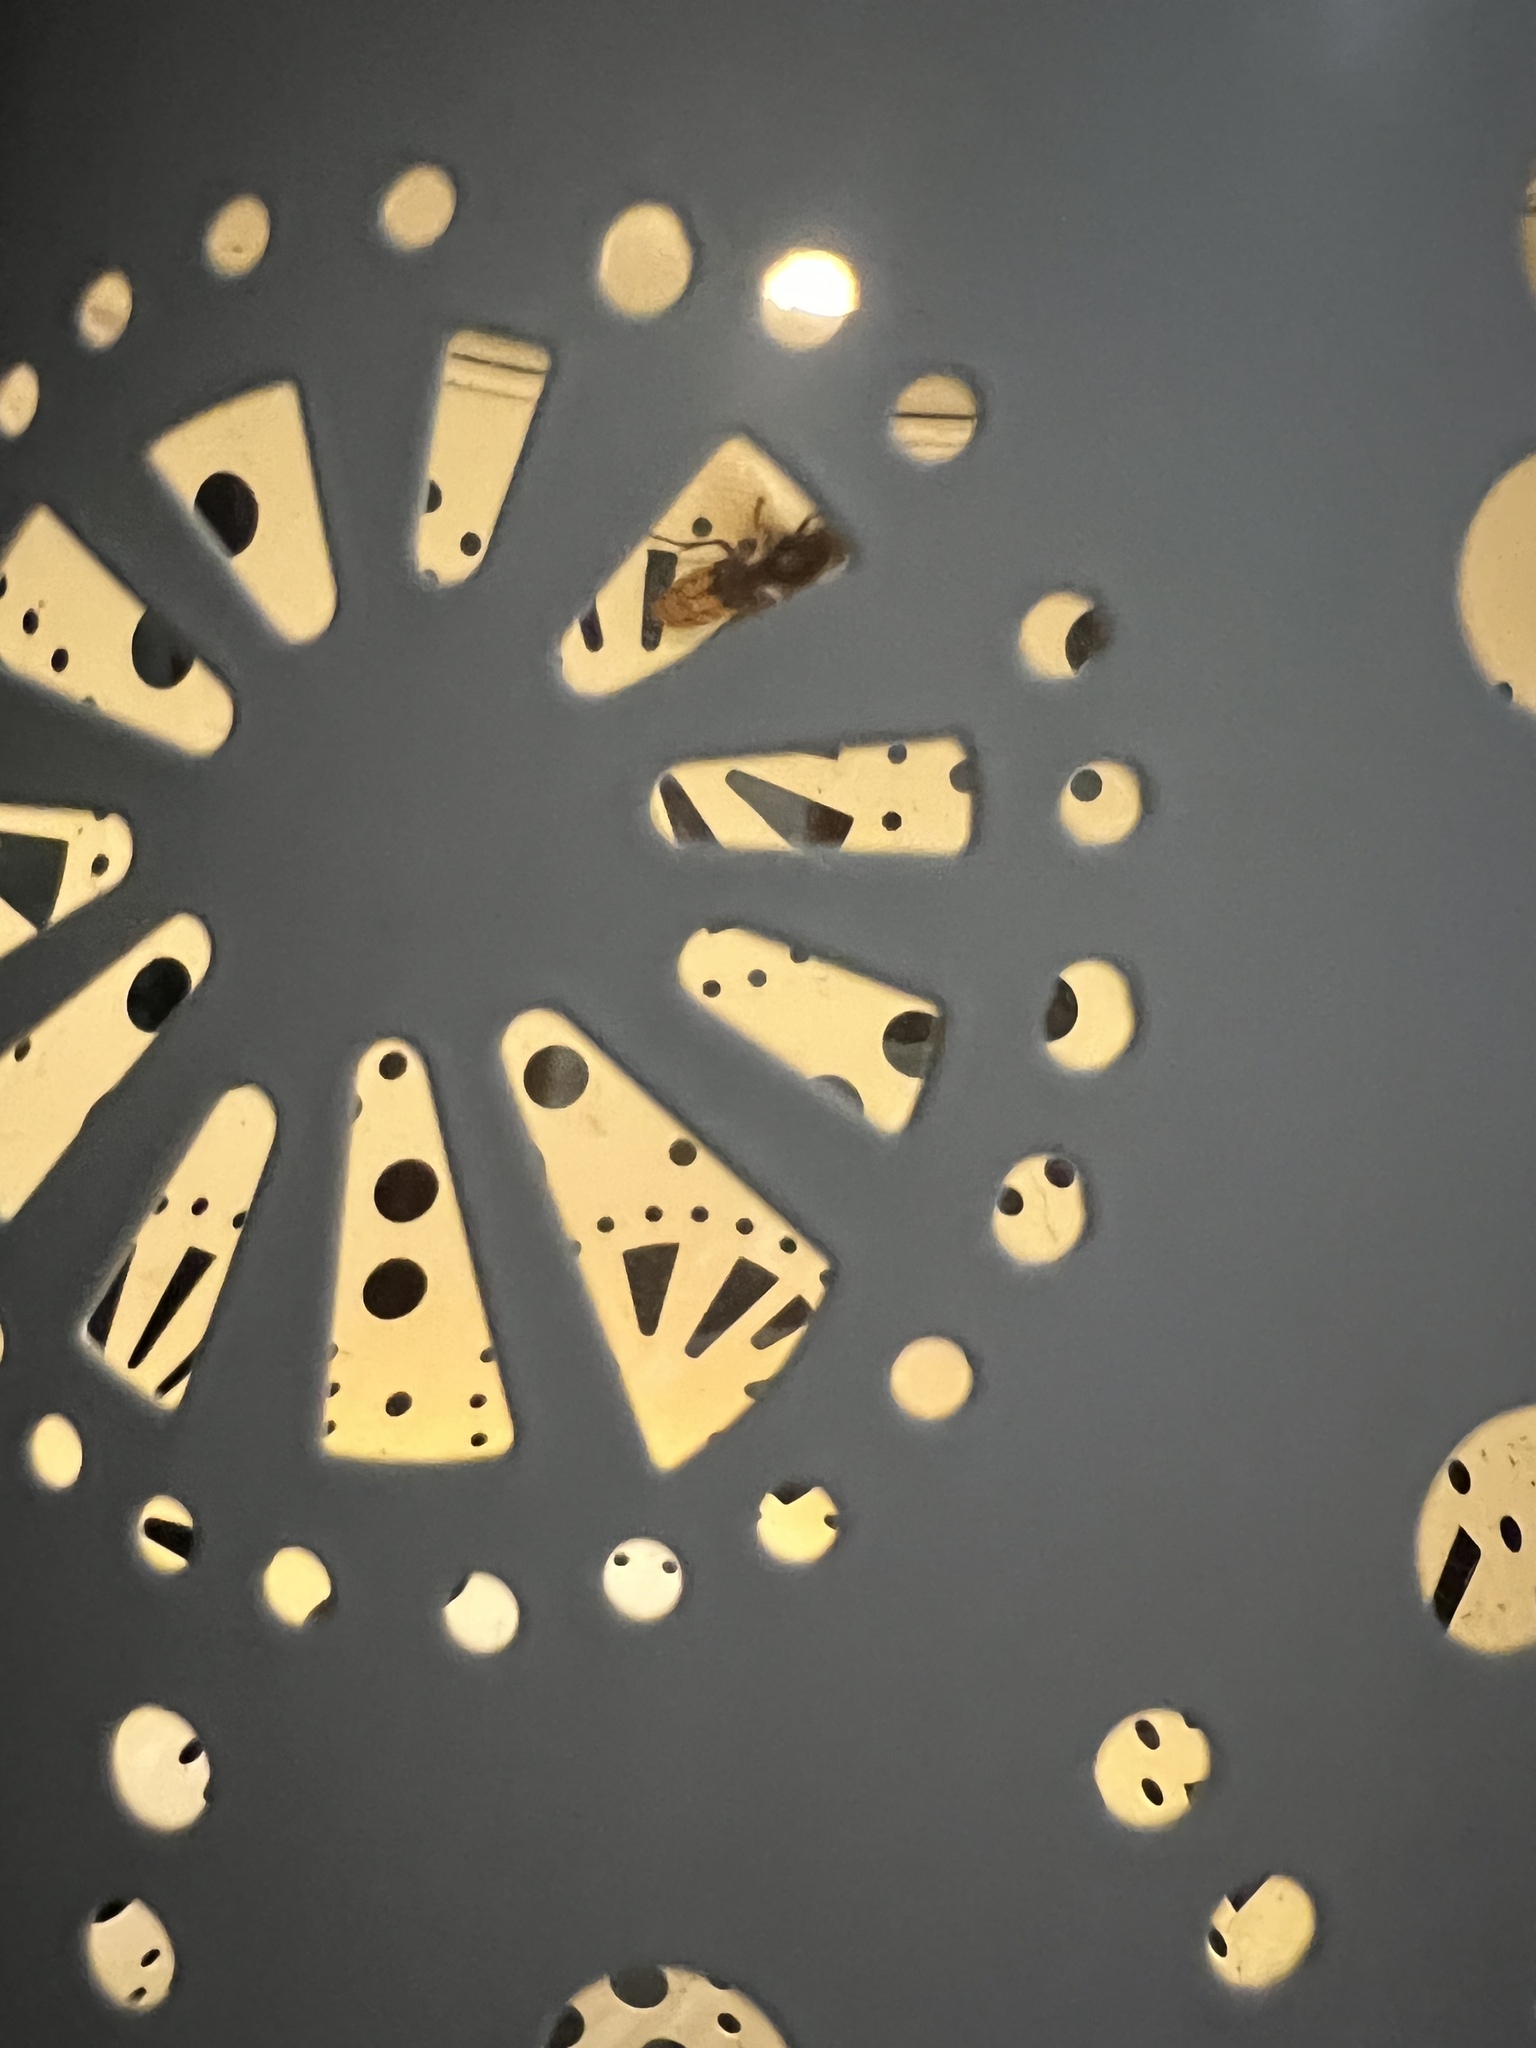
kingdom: Animalia
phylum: Arthropoda
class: Insecta
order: Hymenoptera
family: Vespidae
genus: Vespa
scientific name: Vespa crabro
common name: Hornet
